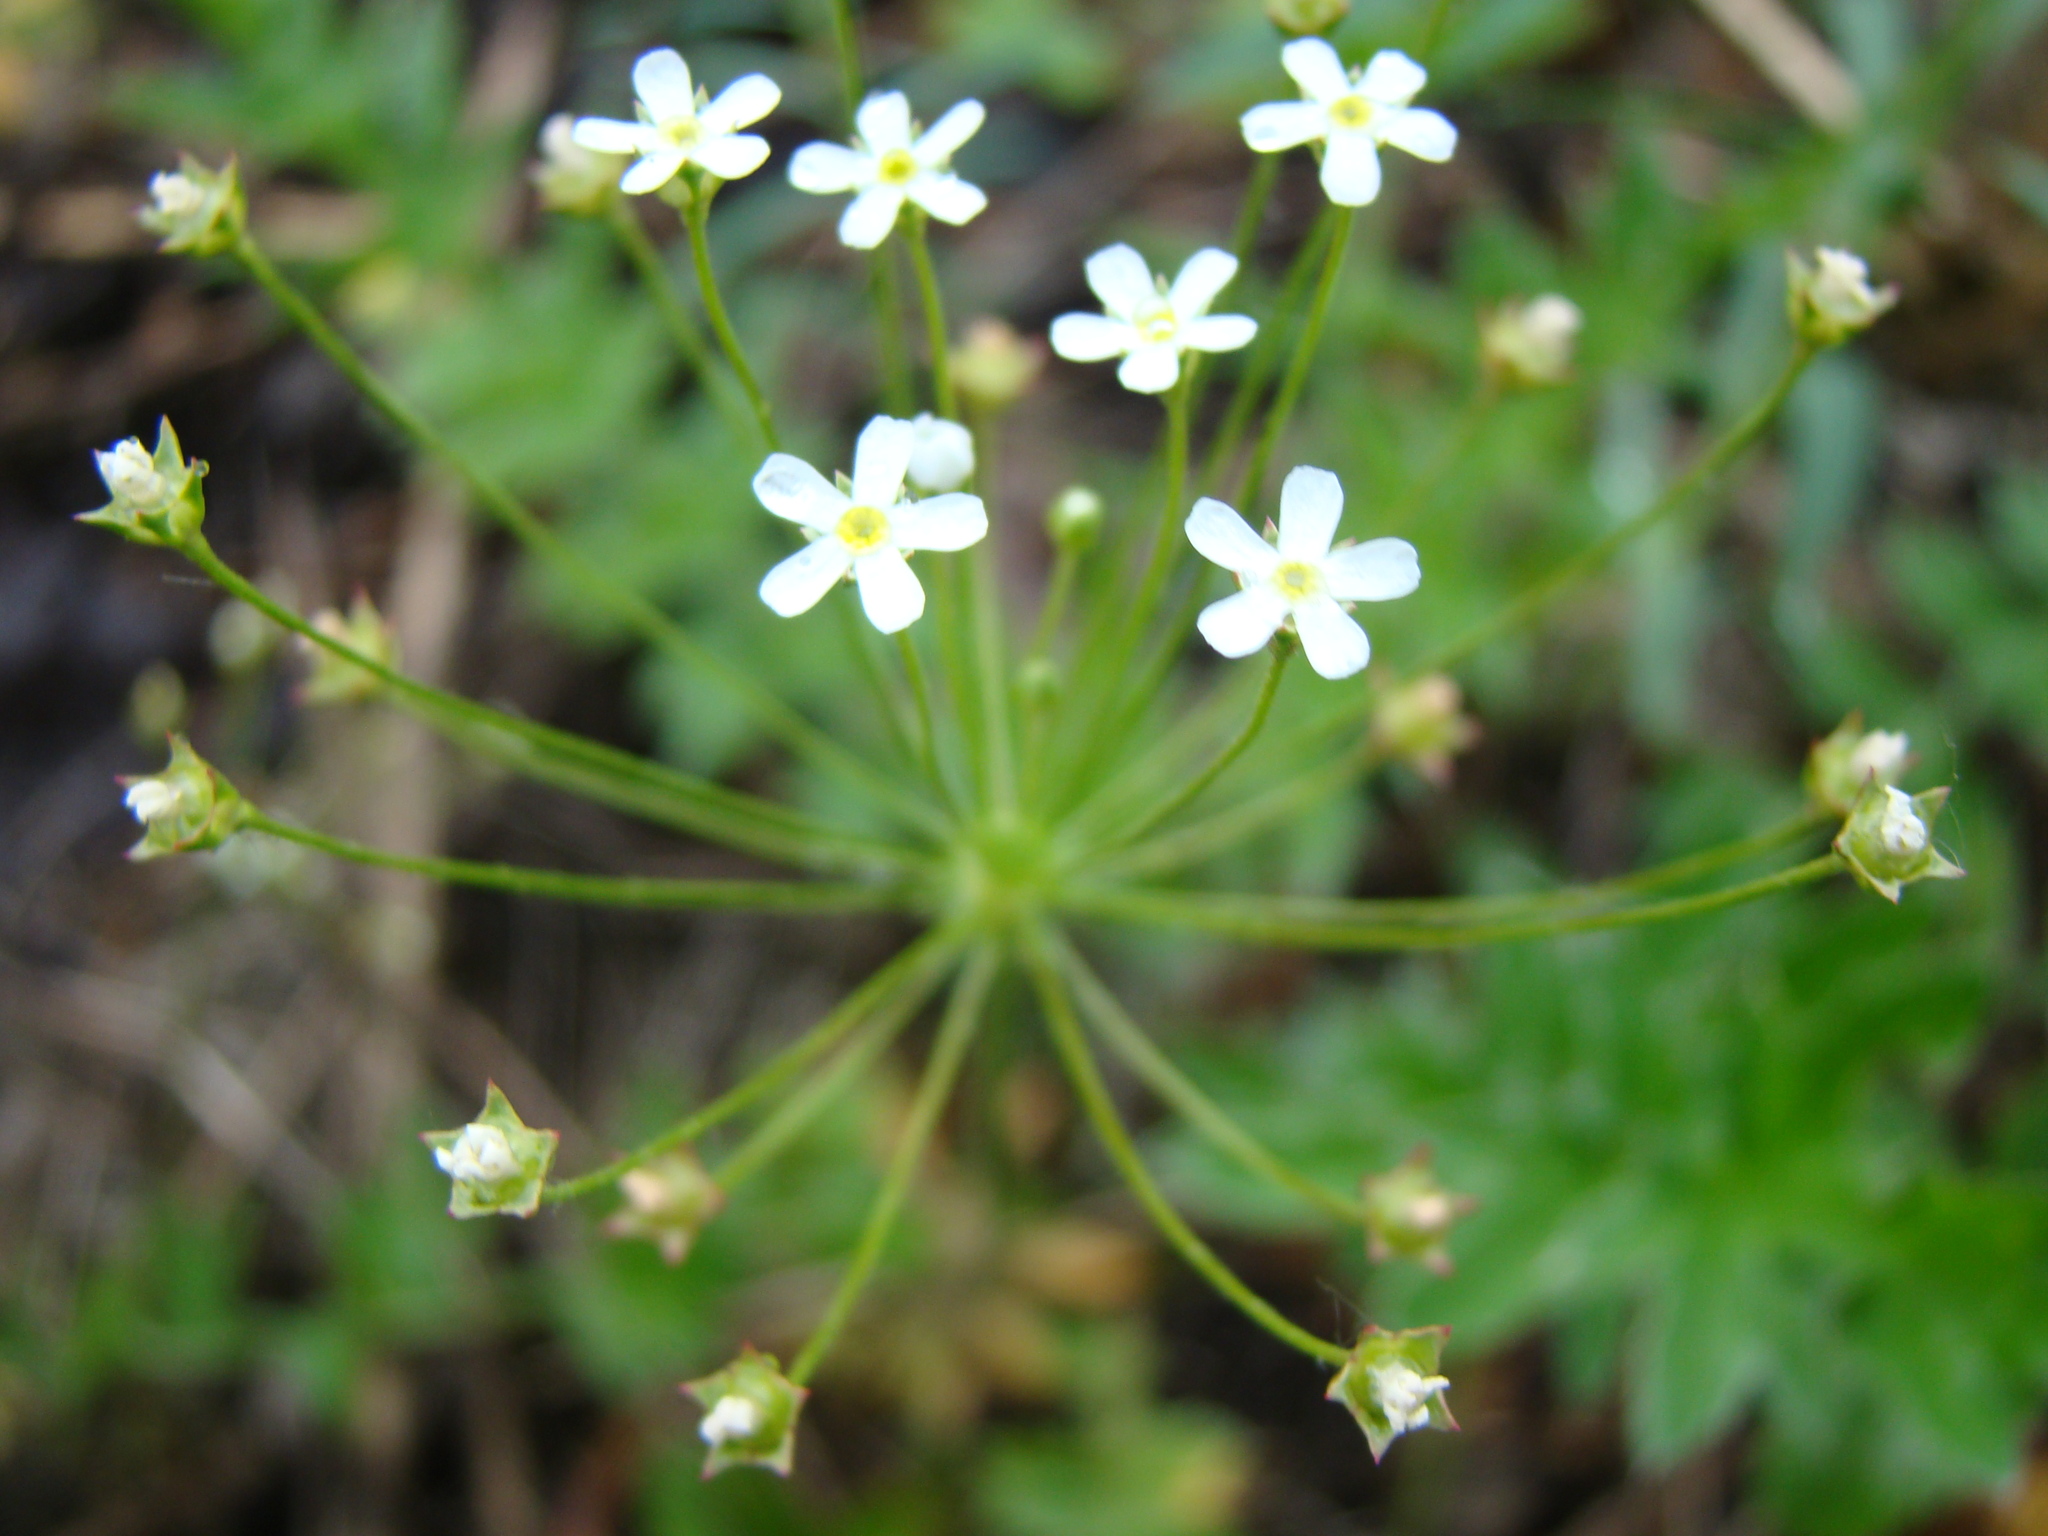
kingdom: Plantae
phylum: Tracheophyta
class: Magnoliopsida
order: Ericales
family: Primulaceae
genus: Androsace
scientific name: Androsace septentrionalis
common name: Hairy northern fairy-candelabra
